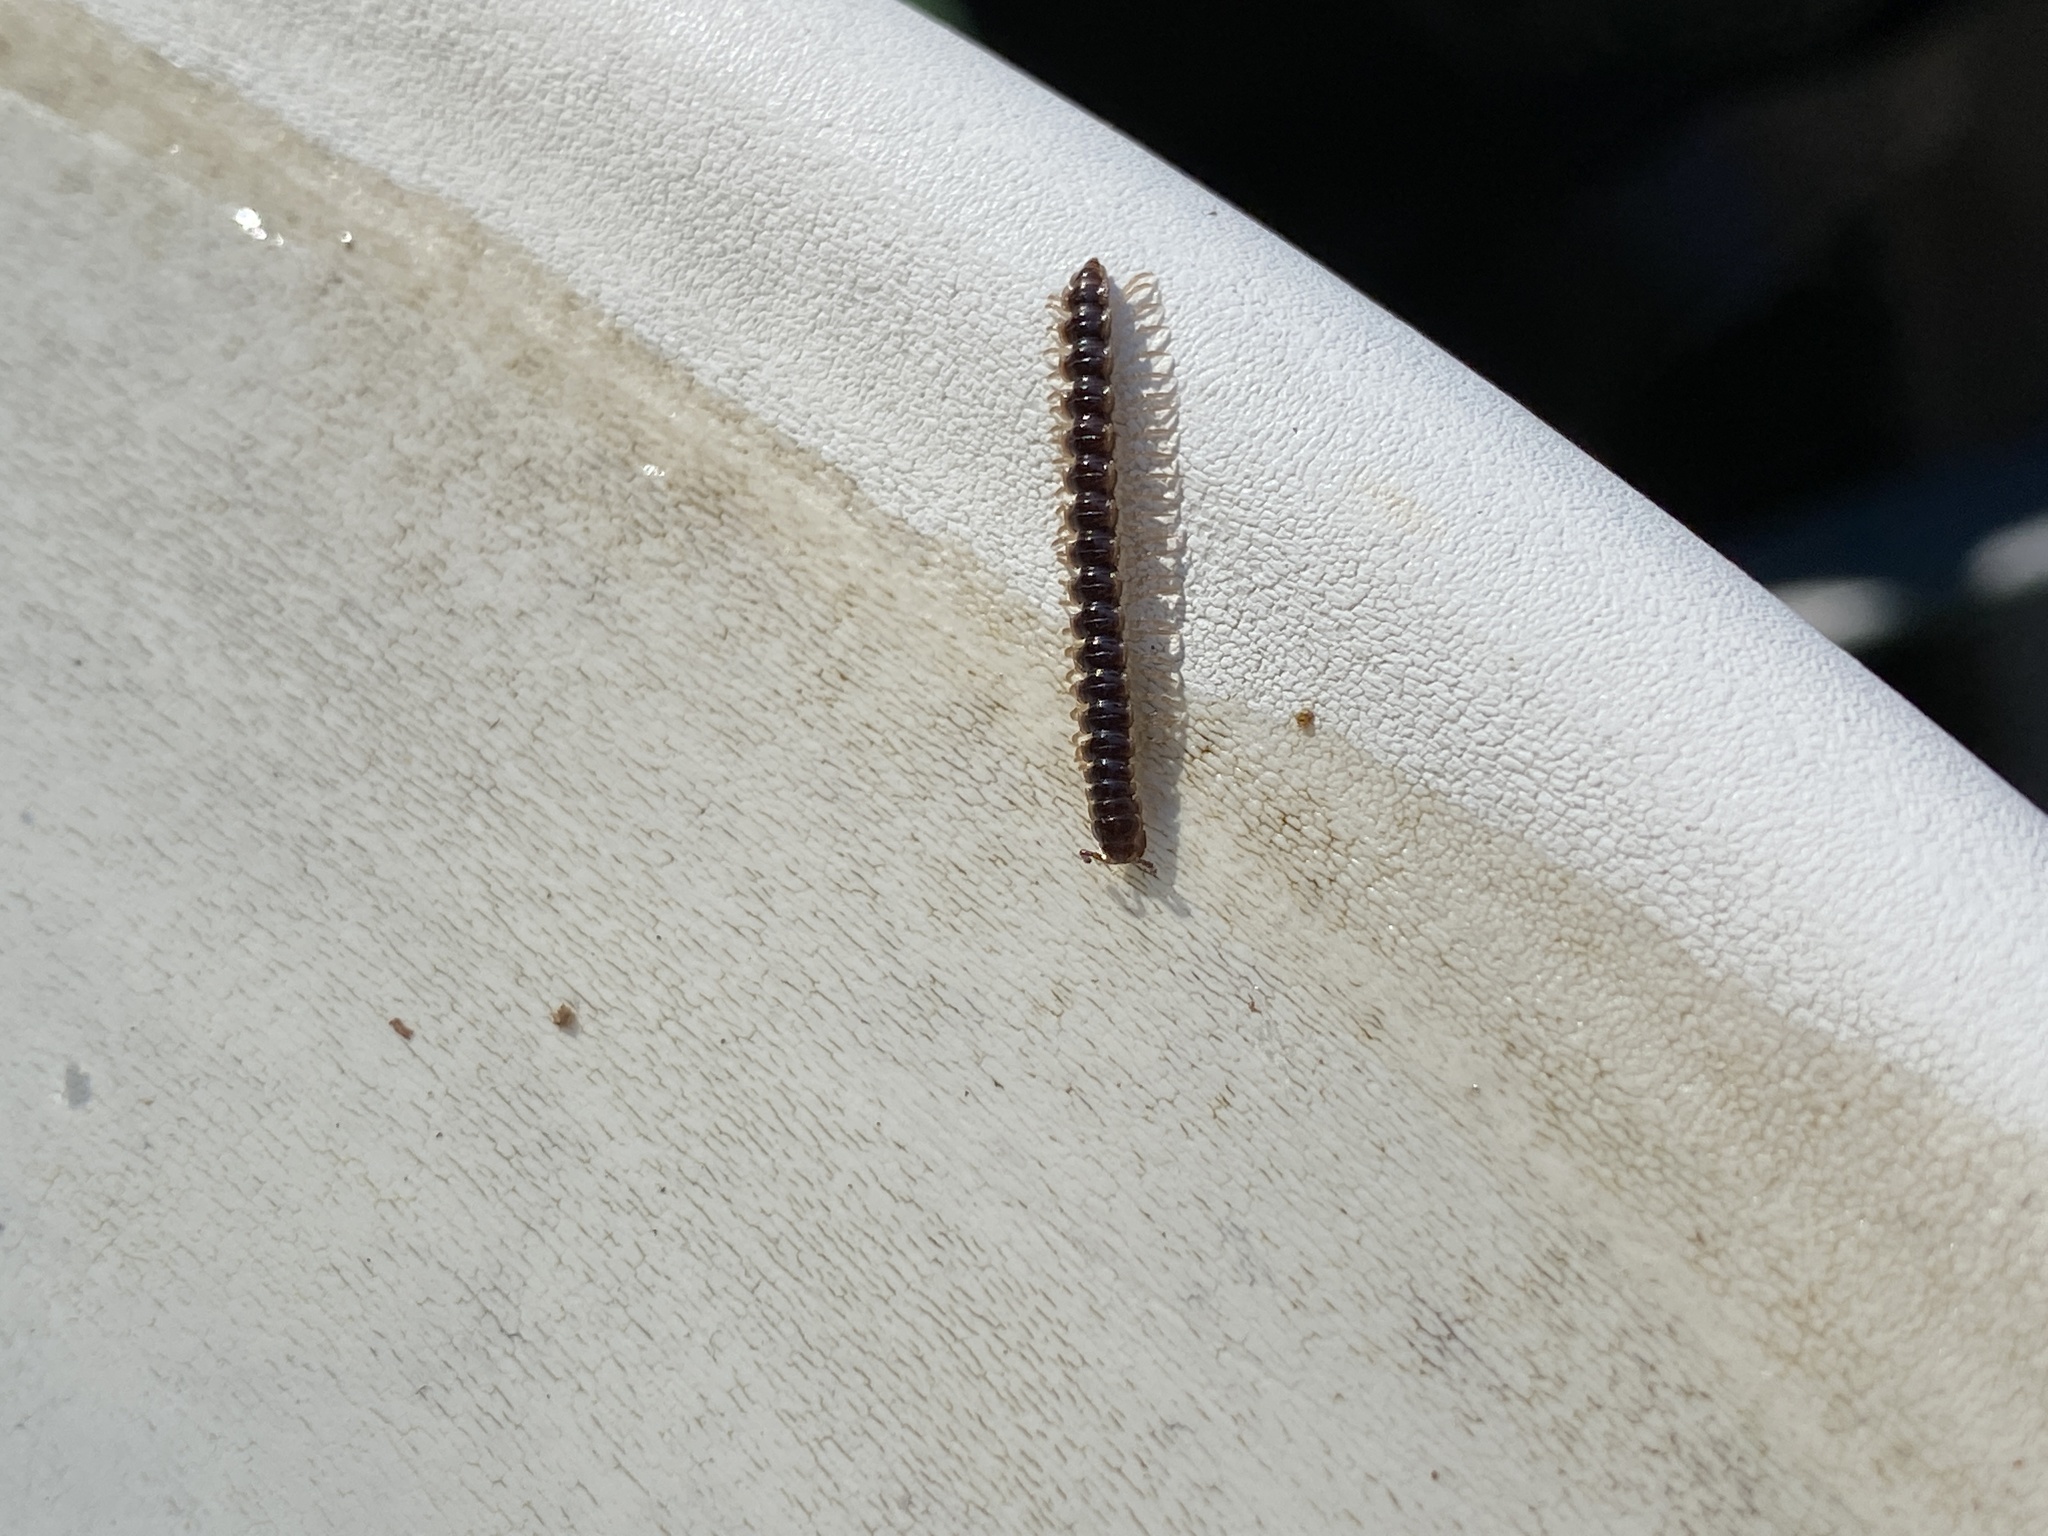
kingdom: Animalia
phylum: Arthropoda
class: Diplopoda
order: Polydesmida
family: Paradoxosomatidae
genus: Oxidus
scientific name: Oxidus gracilis
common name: Greenhouse millipede
